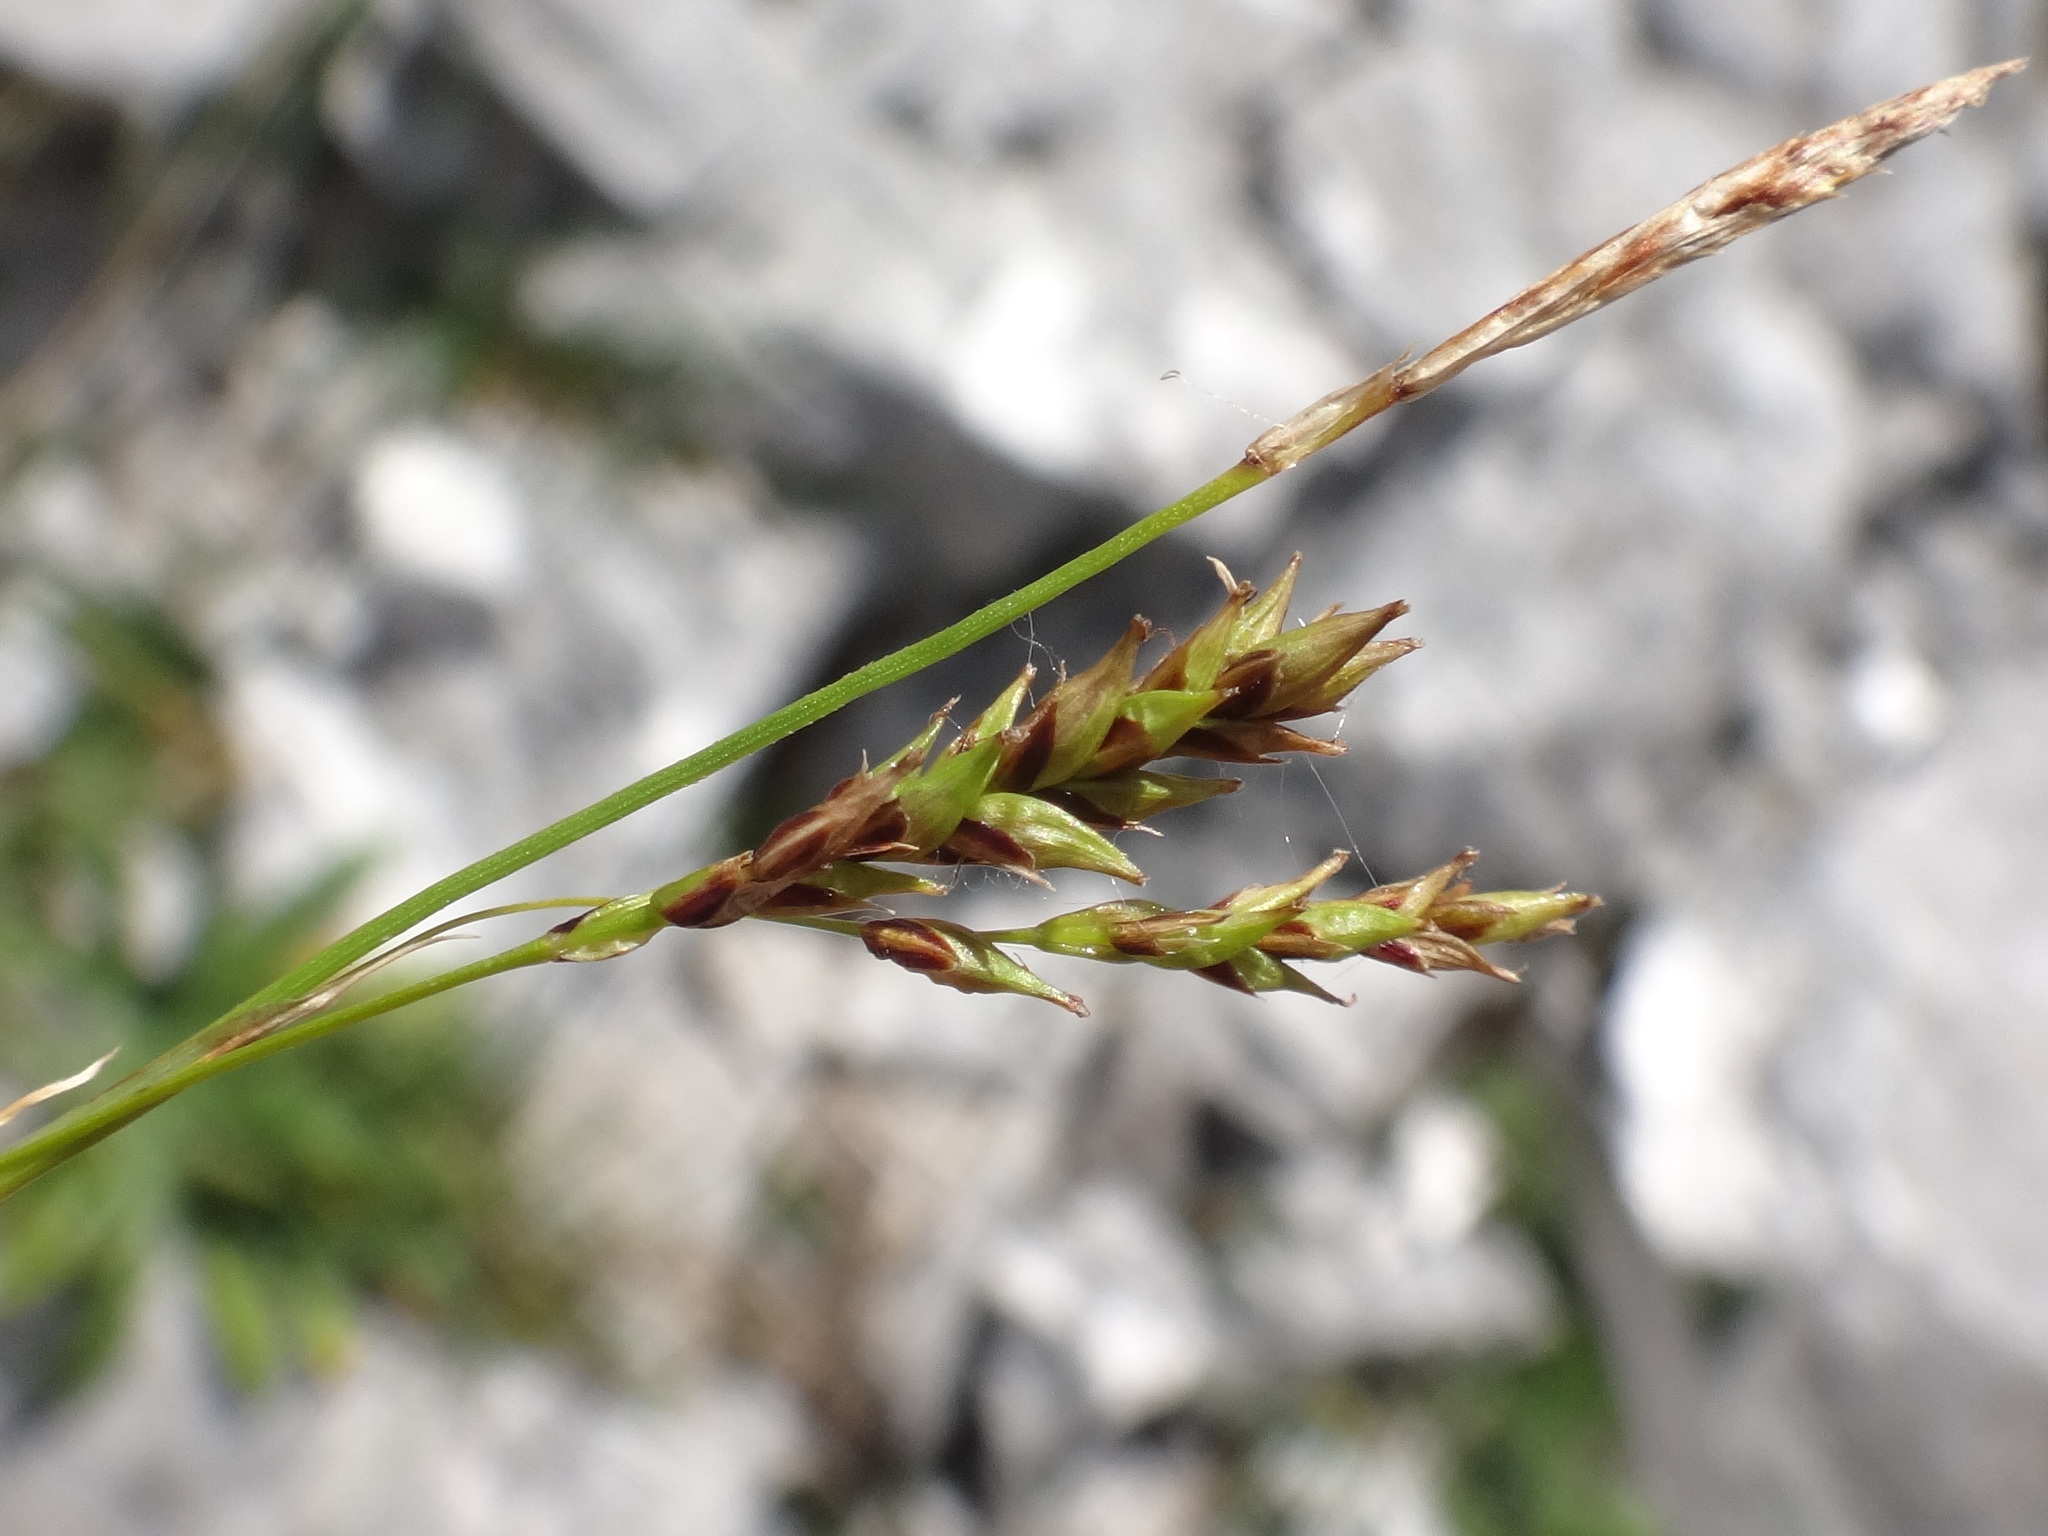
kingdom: Plantae
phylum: Tracheophyta
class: Liliopsida
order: Poales
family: Cyperaceae
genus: Carex
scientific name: Carex brachystachys
